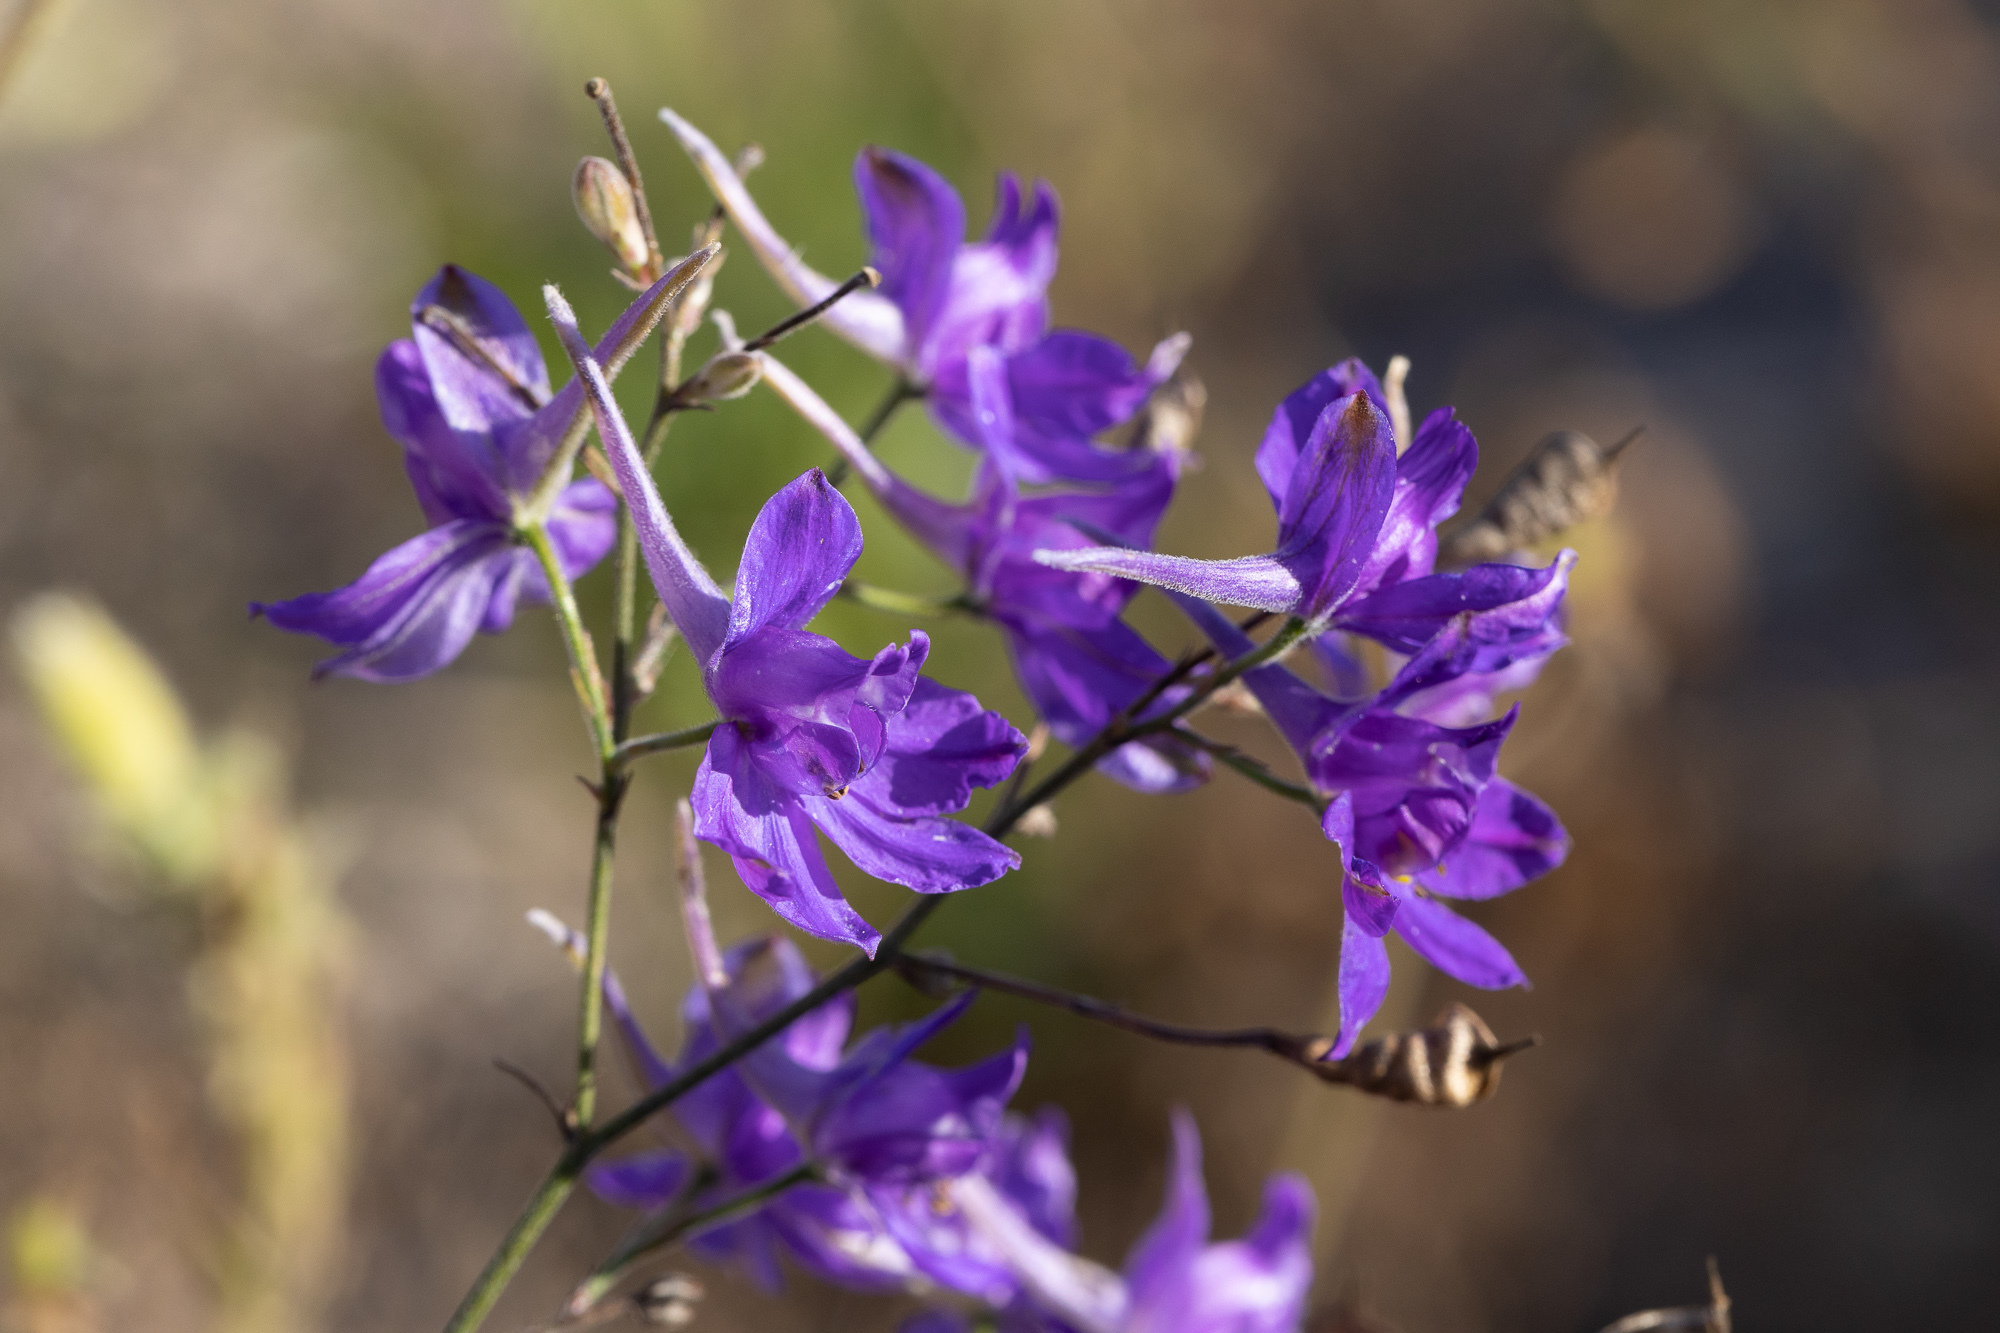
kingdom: Plantae
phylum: Tracheophyta
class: Magnoliopsida
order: Ranunculales
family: Ranunculaceae
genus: Delphinium
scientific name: Delphinium consolida
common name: Branching larkspur
